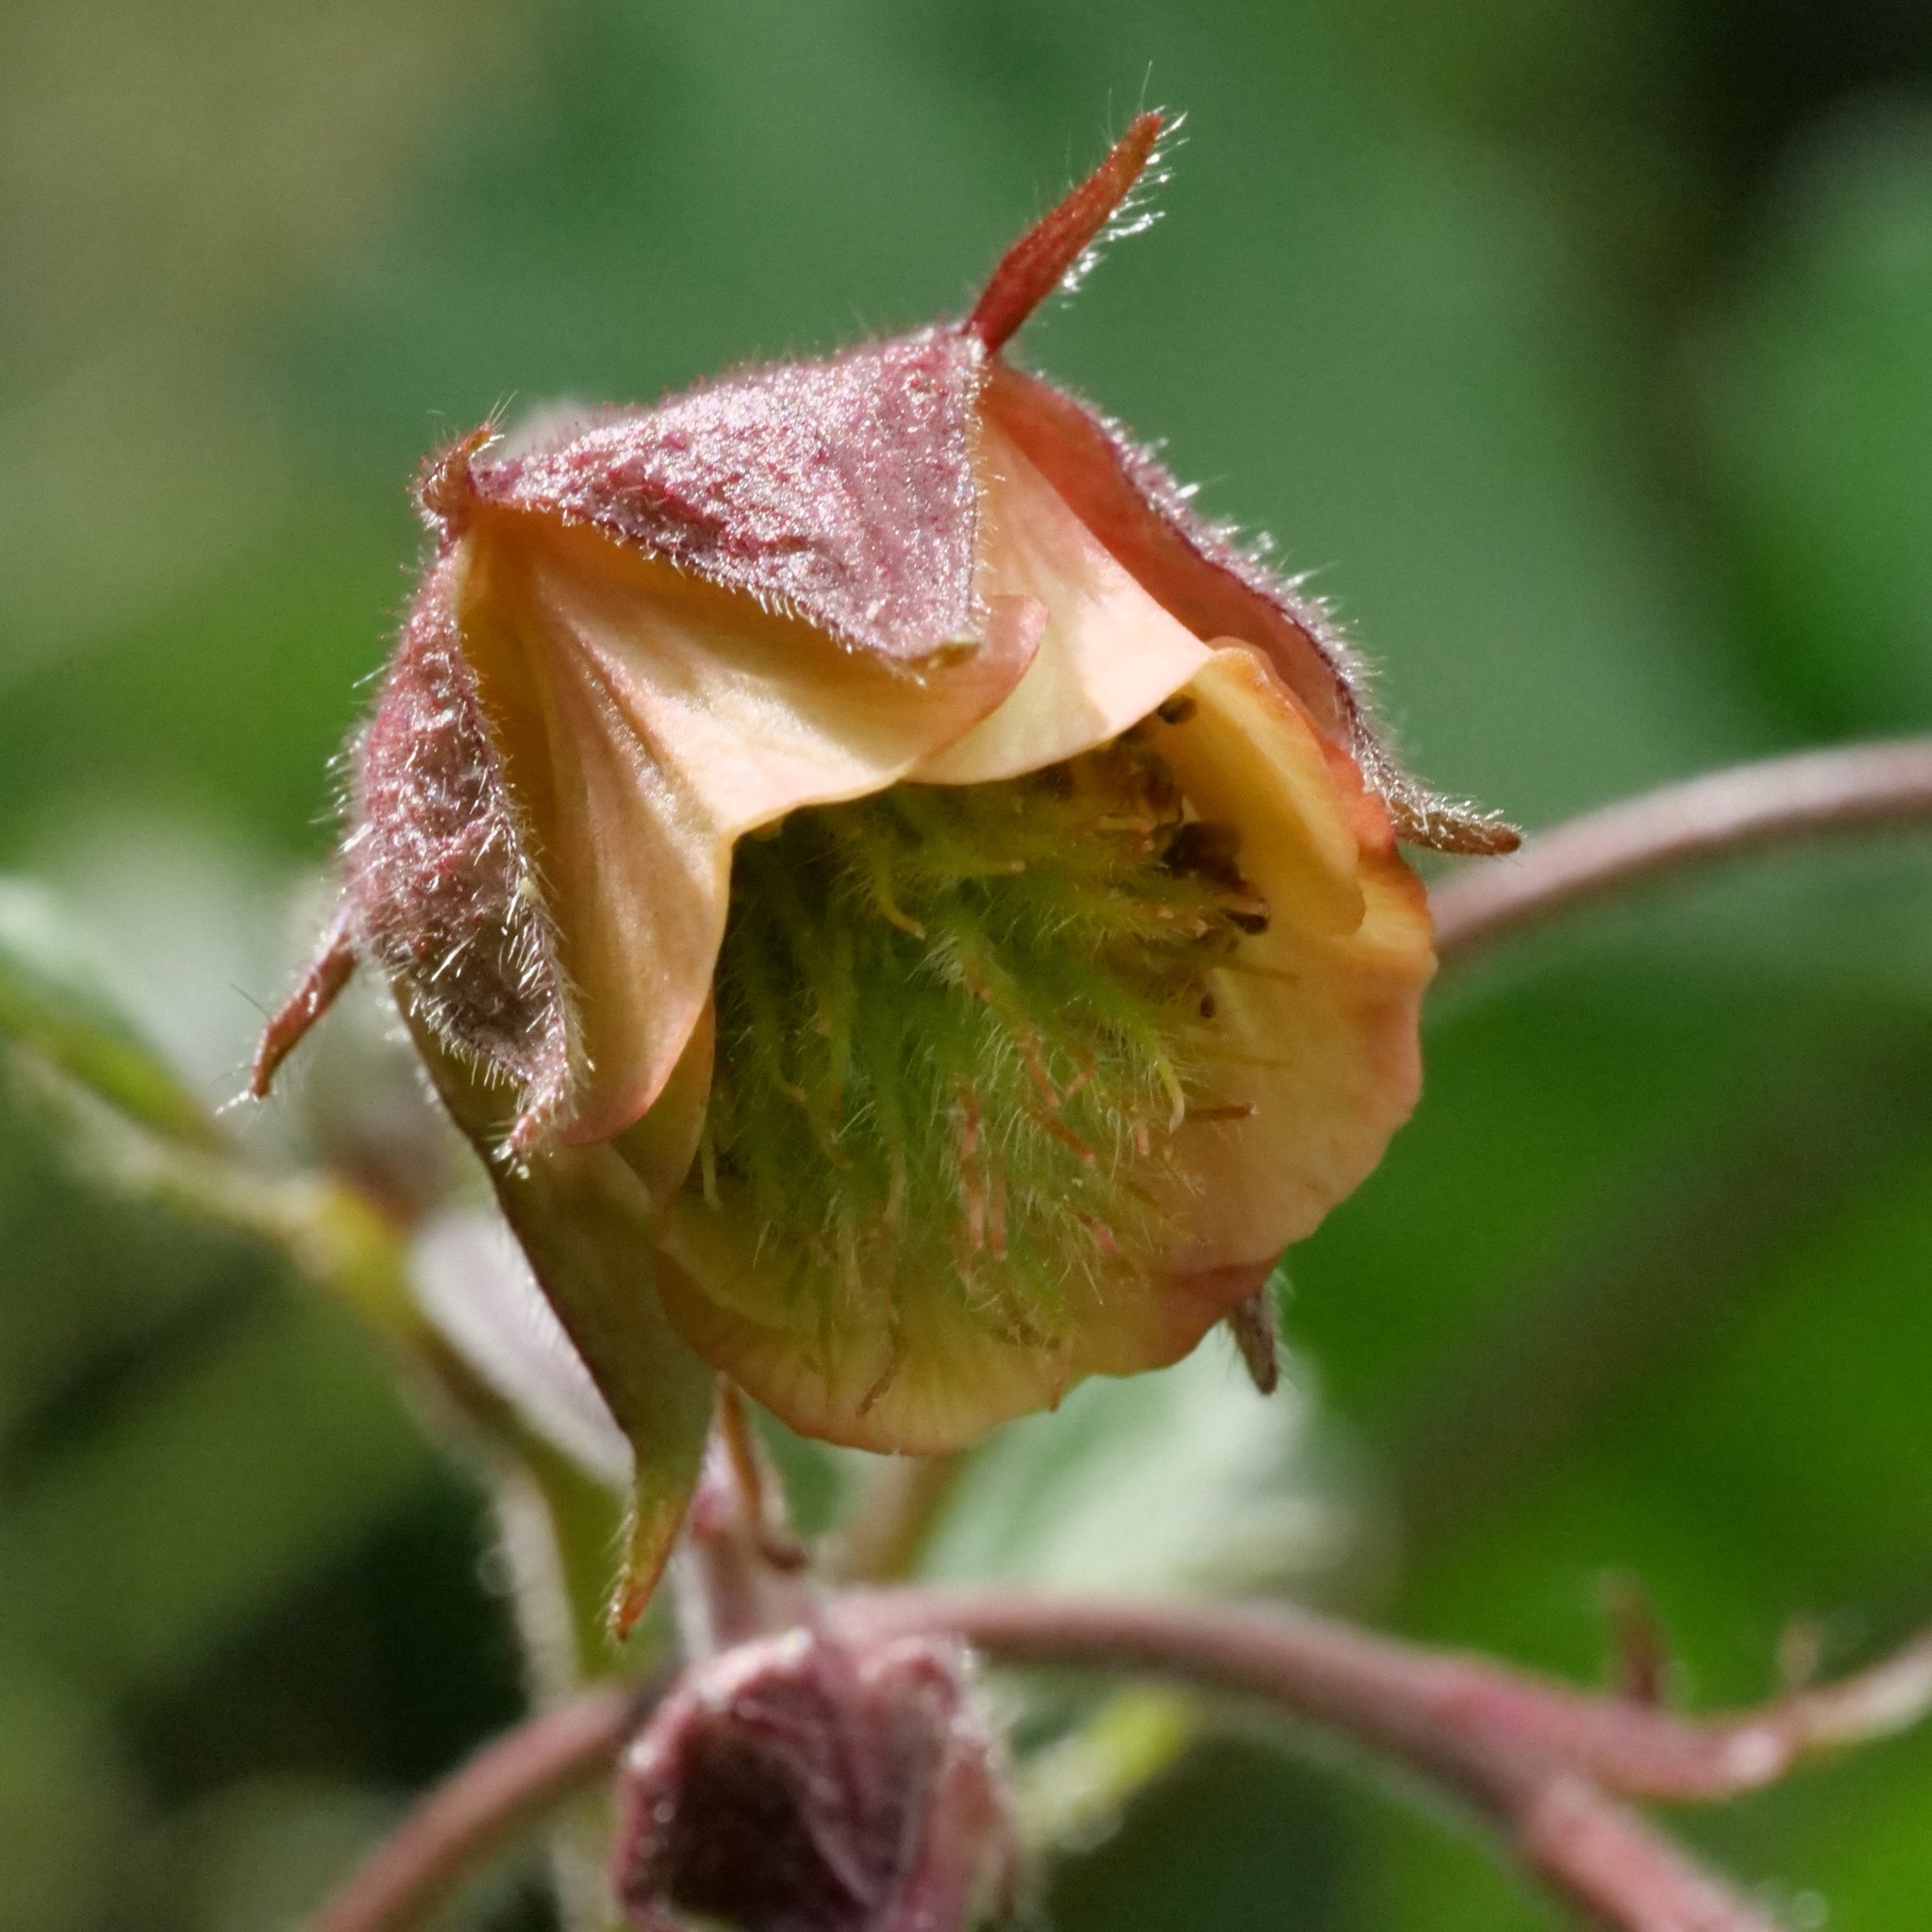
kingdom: Plantae
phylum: Tracheophyta
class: Magnoliopsida
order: Rosales
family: Rosaceae
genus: Geum
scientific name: Geum rivale
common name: Water avens
